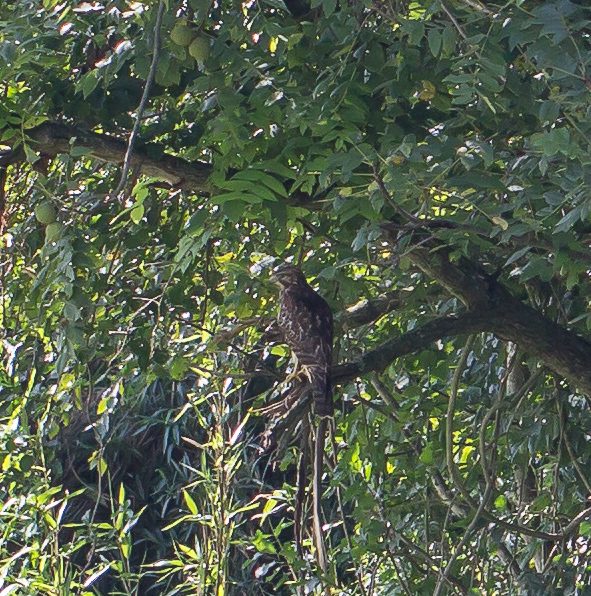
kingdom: Animalia
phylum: Chordata
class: Aves
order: Accipitriformes
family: Accipitridae
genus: Buteo
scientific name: Buteo lineatus
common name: Red-shouldered hawk
